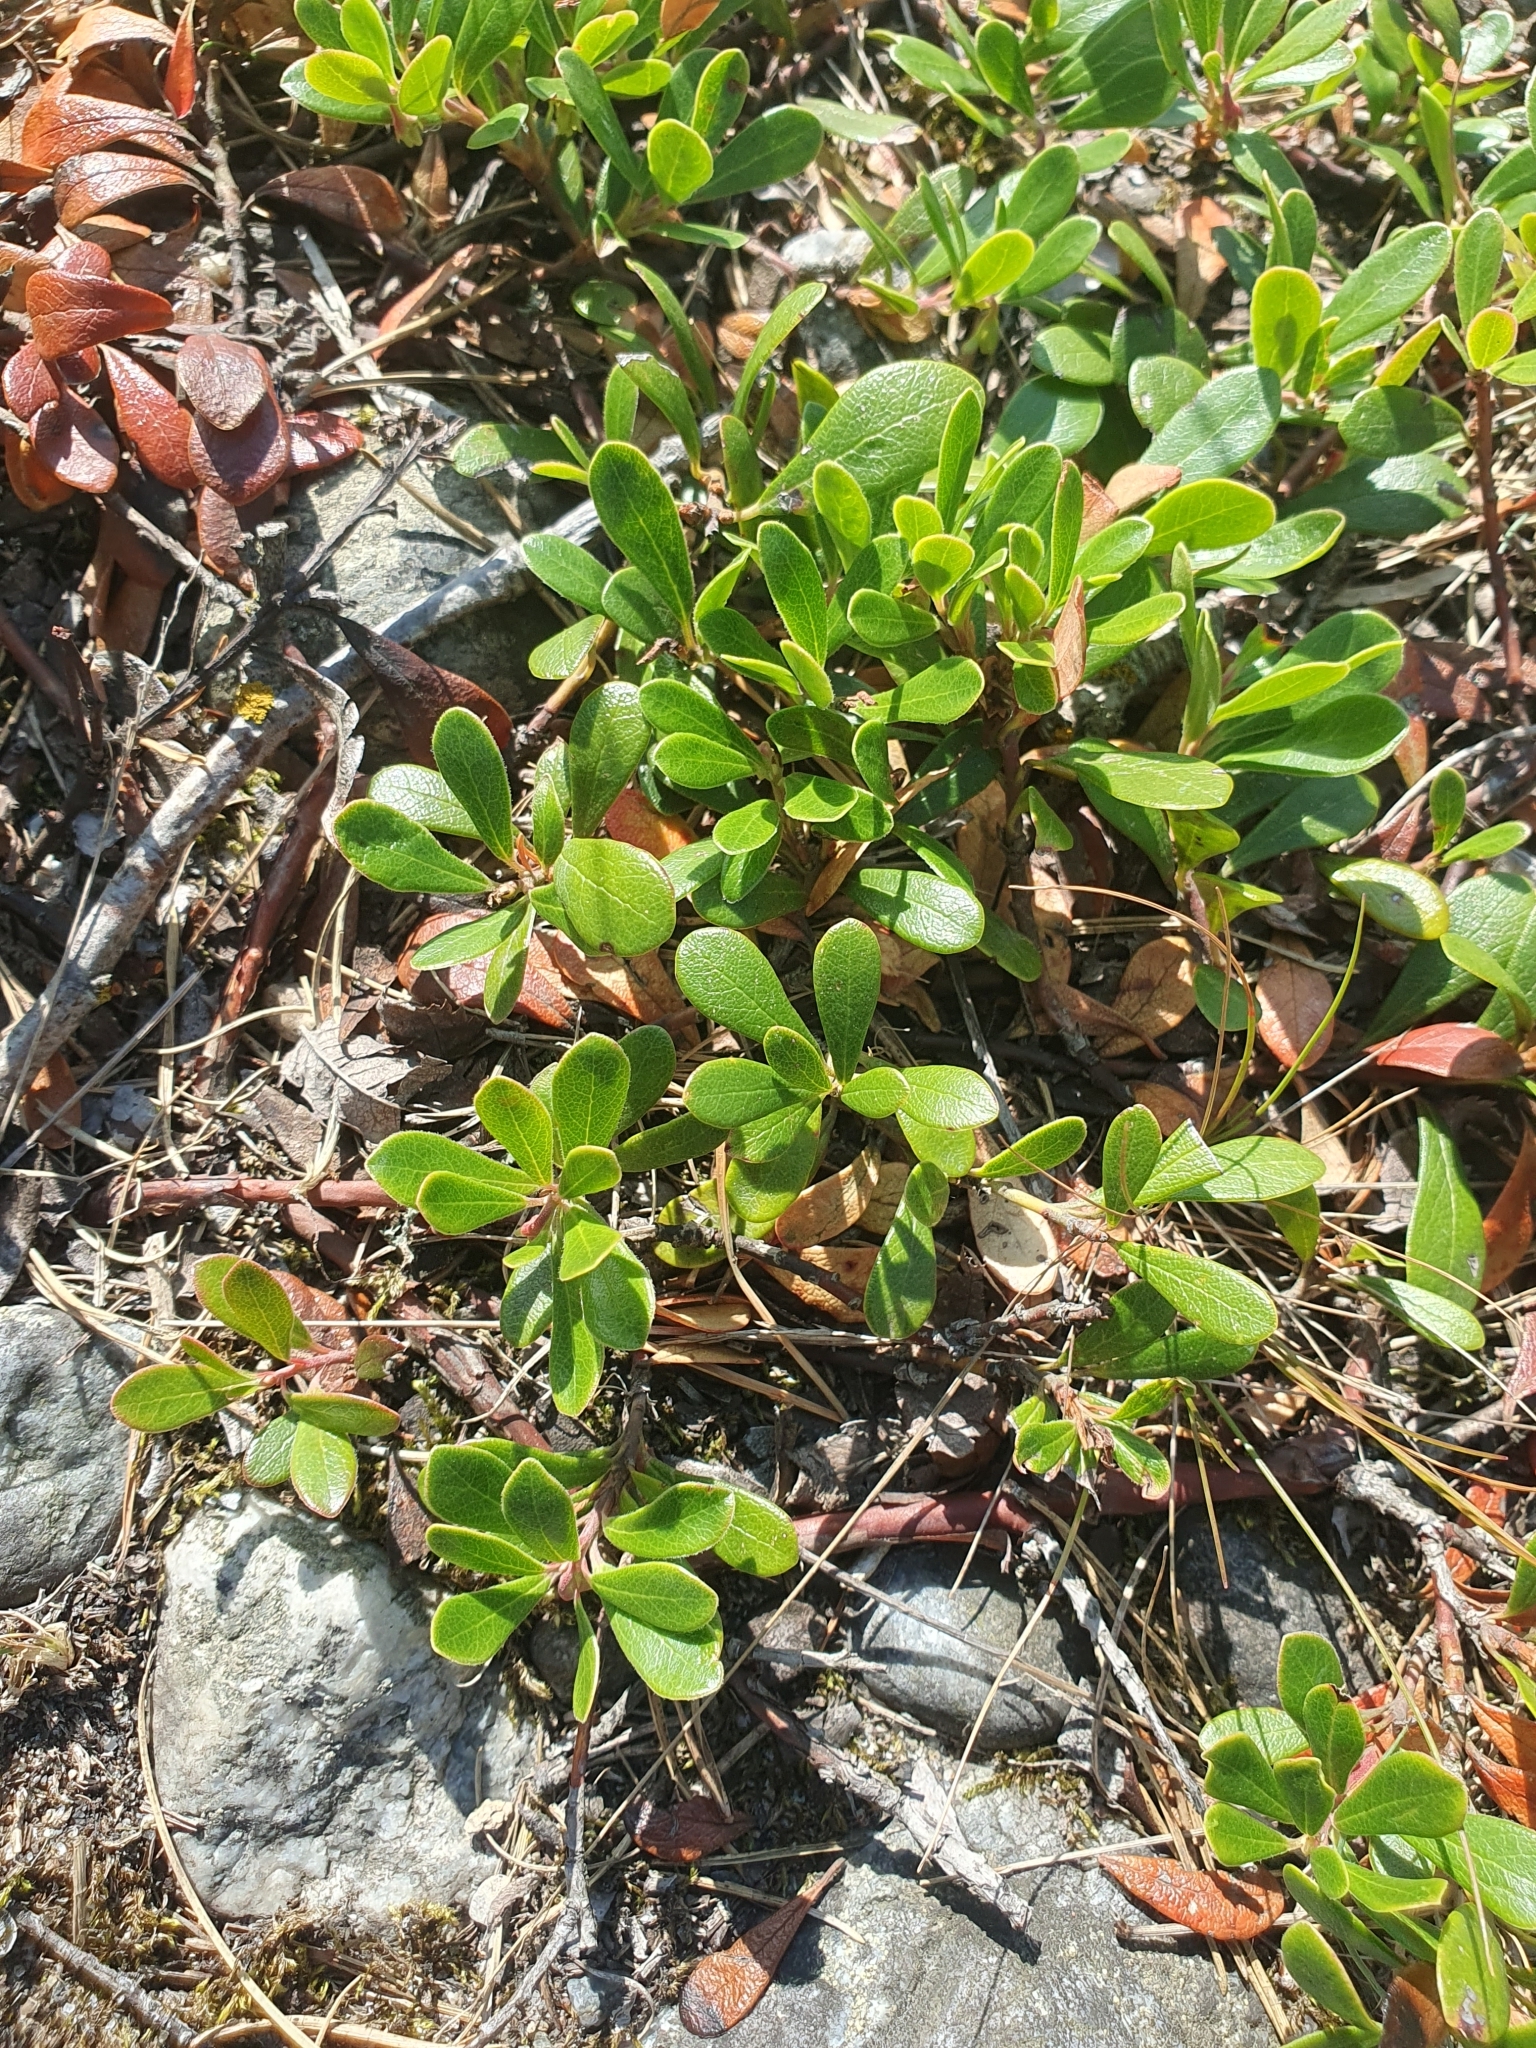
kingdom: Plantae
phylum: Tracheophyta
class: Magnoliopsida
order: Ericales
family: Ericaceae
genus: Arctostaphylos
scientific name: Arctostaphylos uva-ursi
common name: Bearberry
